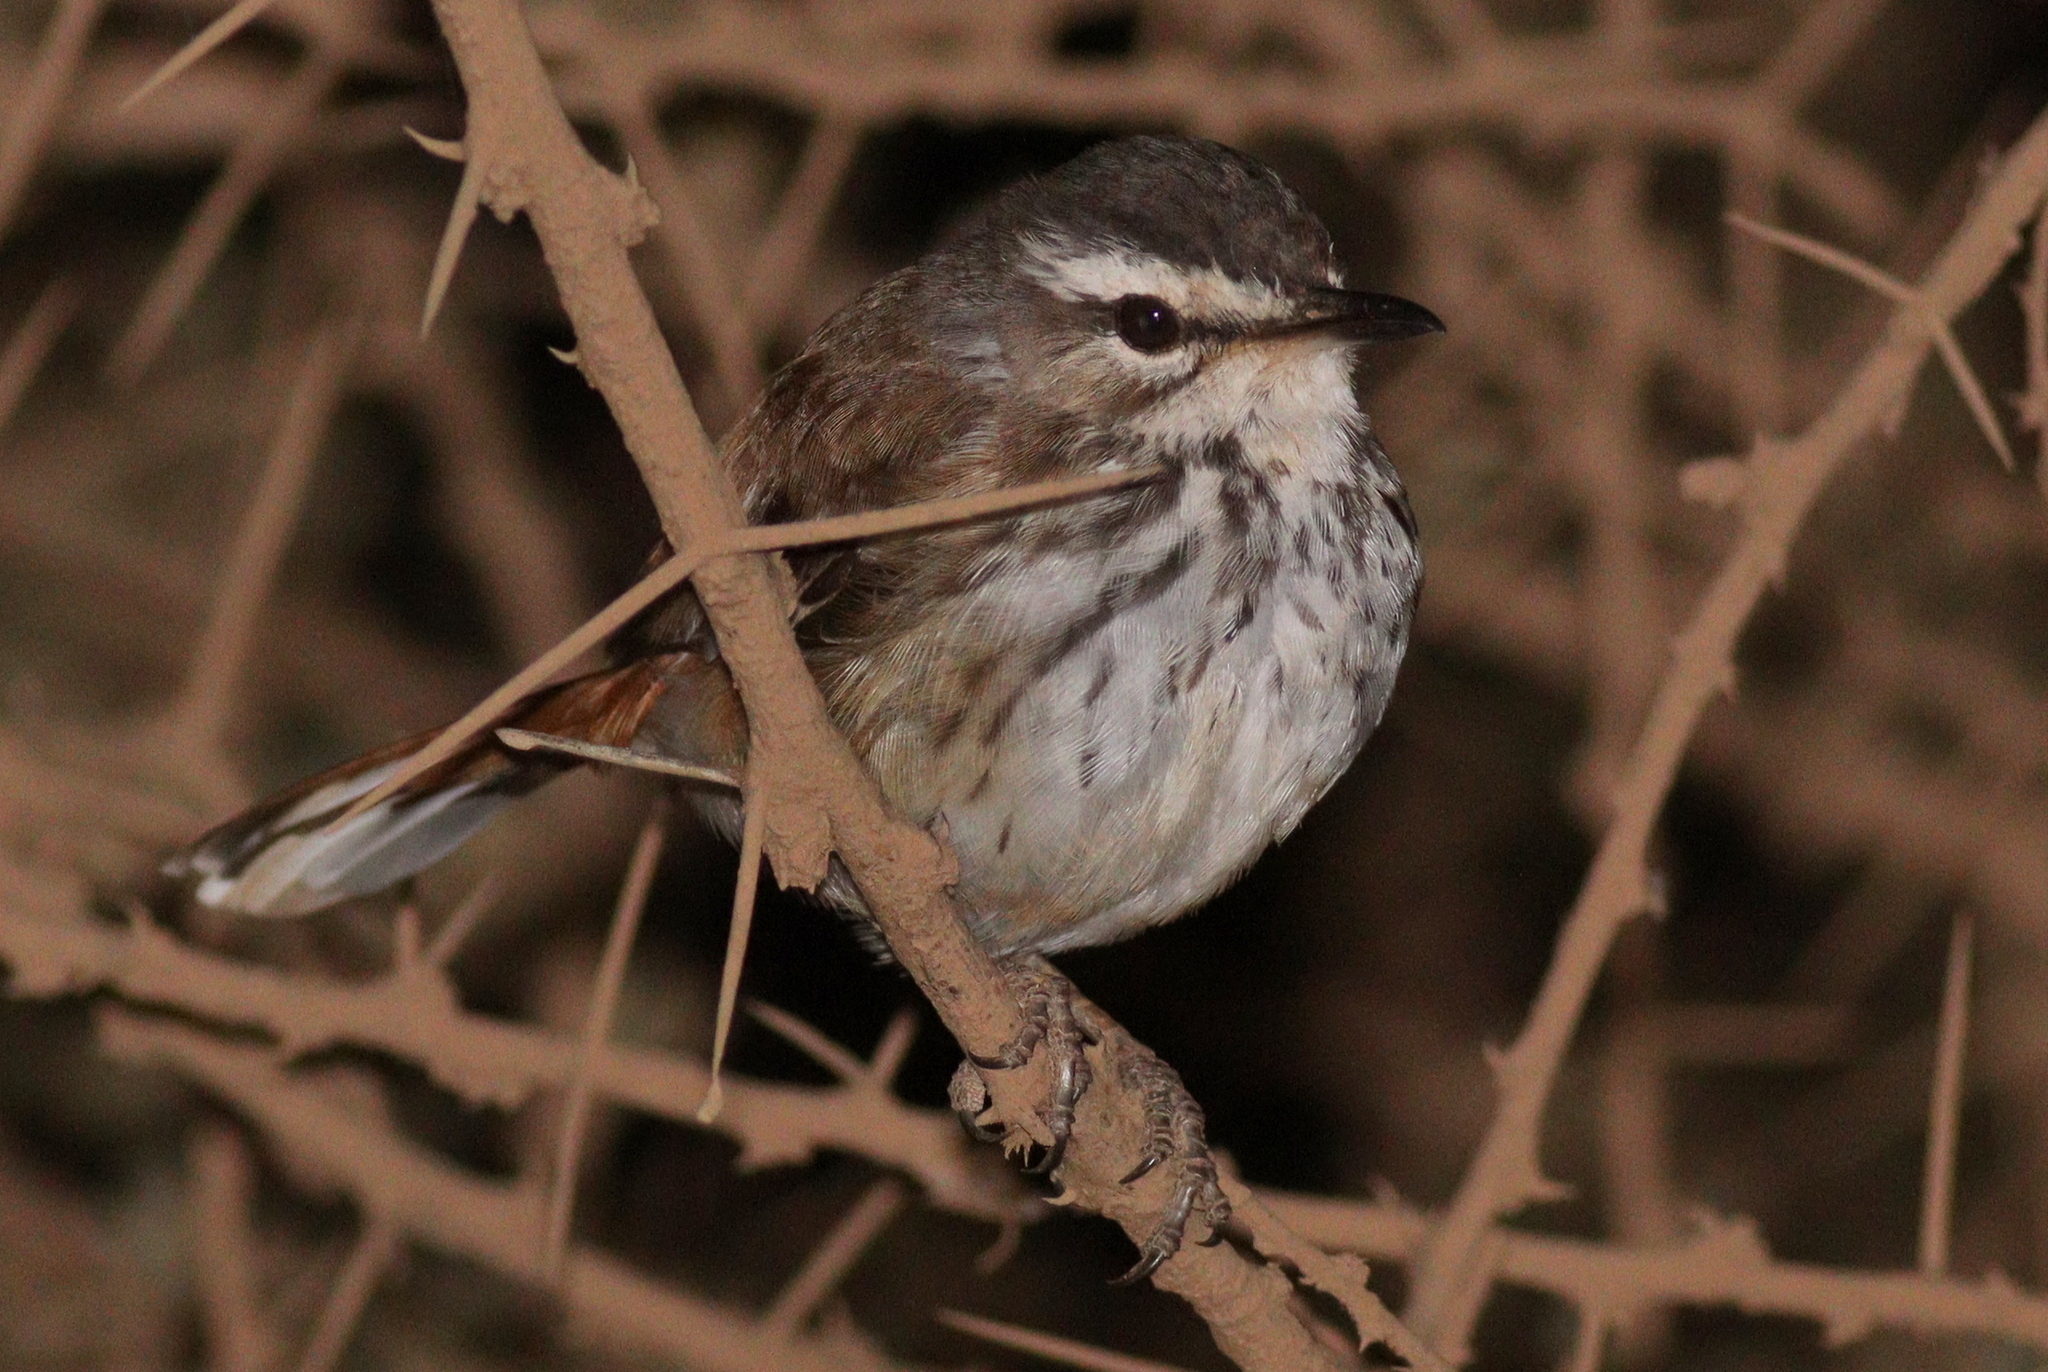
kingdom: Animalia
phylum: Chordata
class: Aves
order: Passeriformes
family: Muscicapidae
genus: Erythropygia
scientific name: Erythropygia leucophrys
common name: White-browed scrub robin
